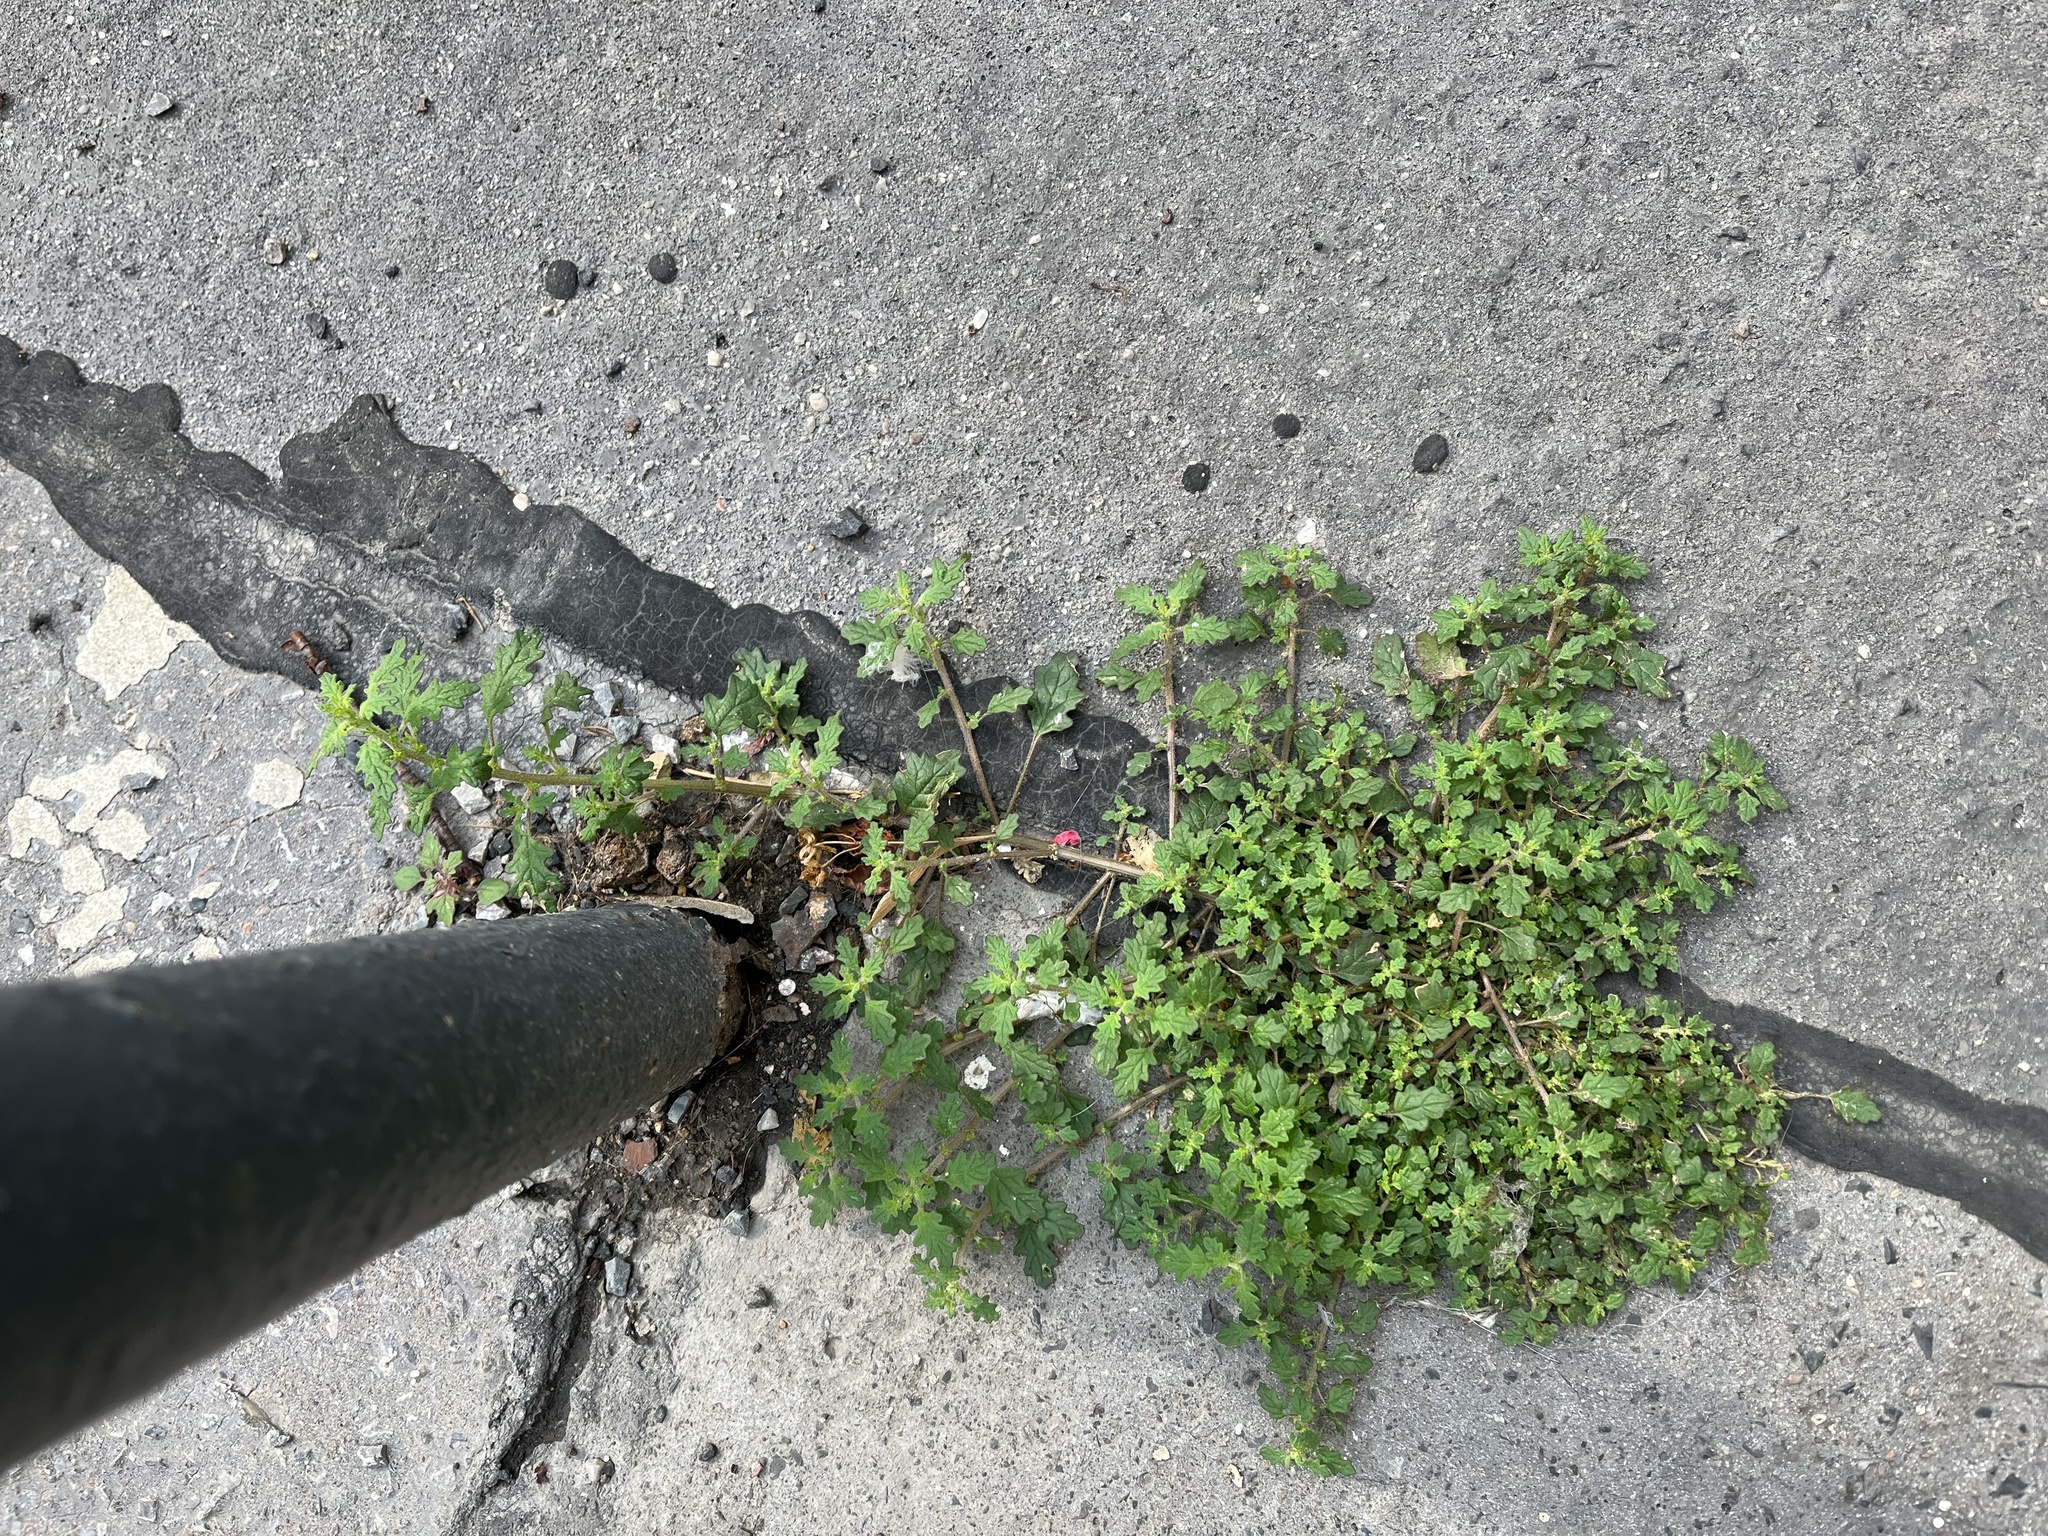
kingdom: Plantae
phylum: Tracheophyta
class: Magnoliopsida
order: Caryophyllales
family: Amaranthaceae
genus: Dysphania
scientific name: Dysphania pumilio
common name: Clammy goosefoot
